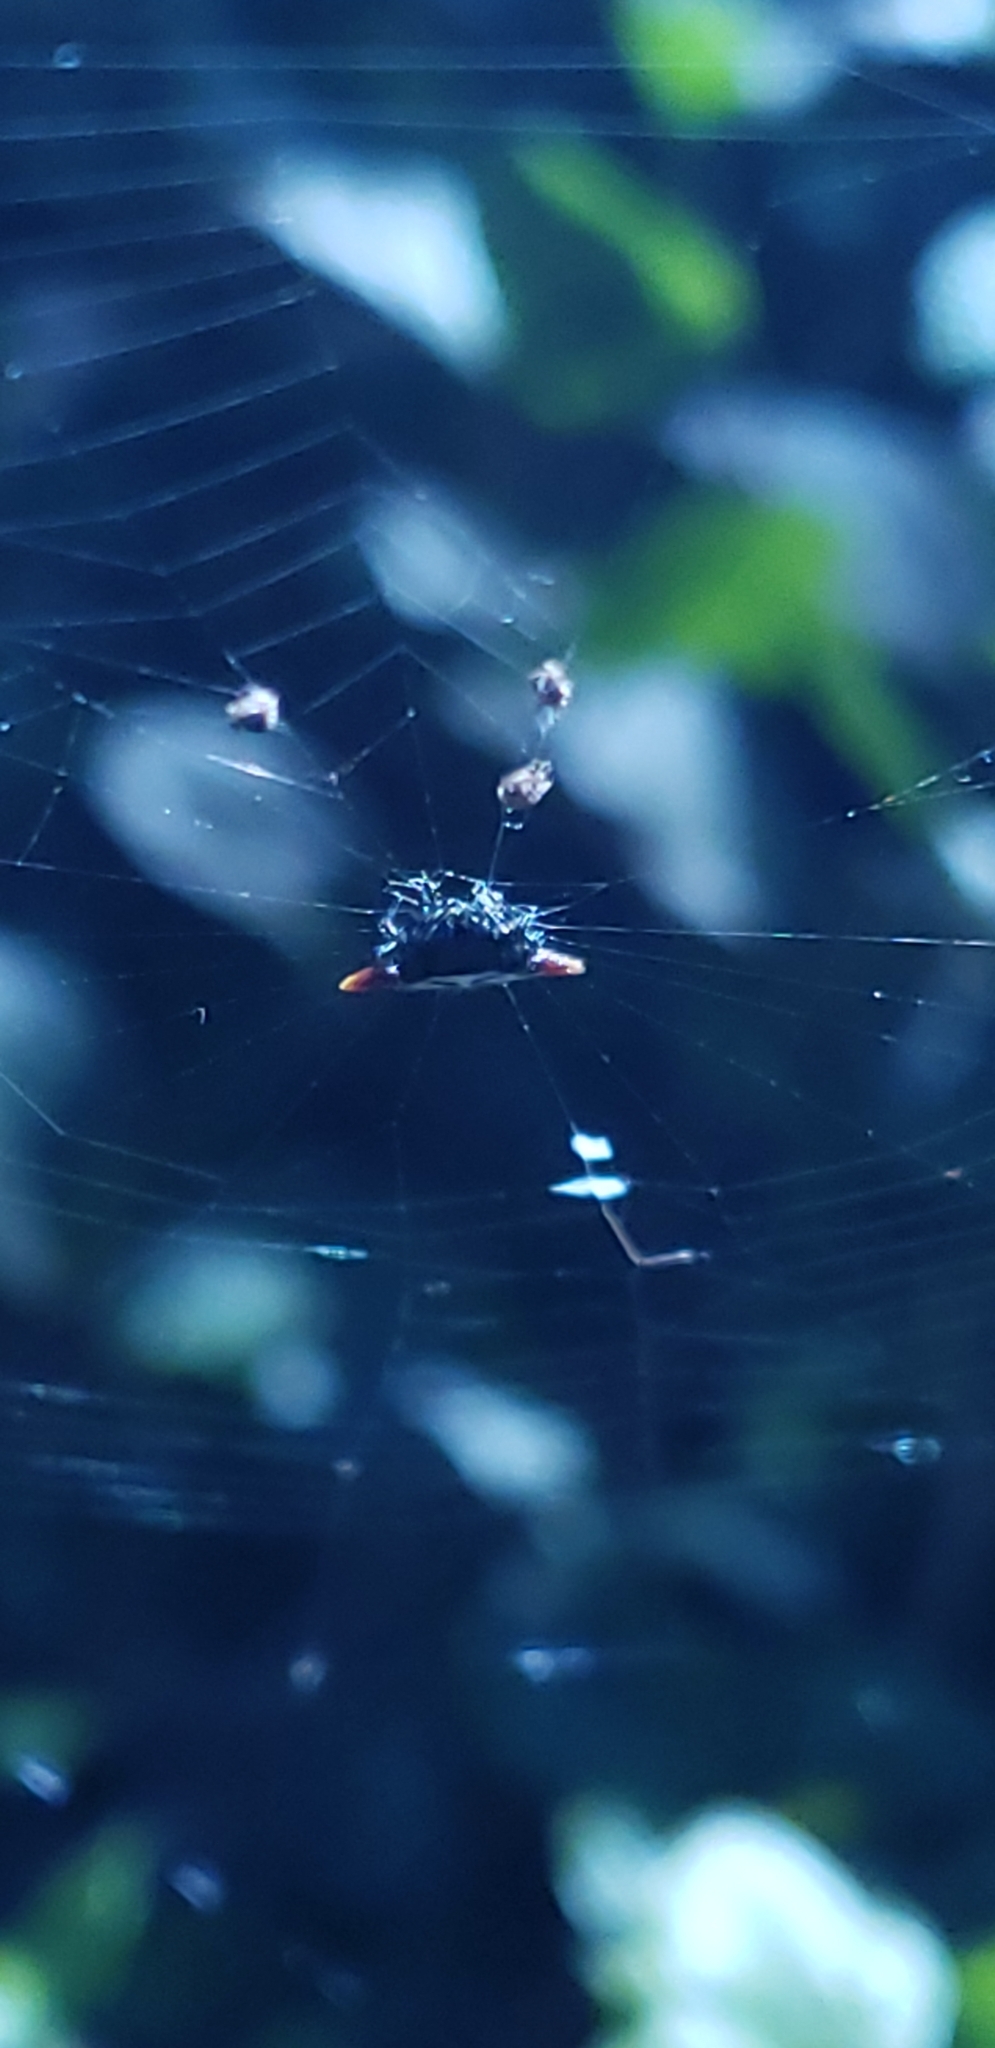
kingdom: Animalia
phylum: Arthropoda
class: Arachnida
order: Araneae
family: Araneidae
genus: Gasteracantha
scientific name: Gasteracantha cancriformis
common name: Orb weavers
